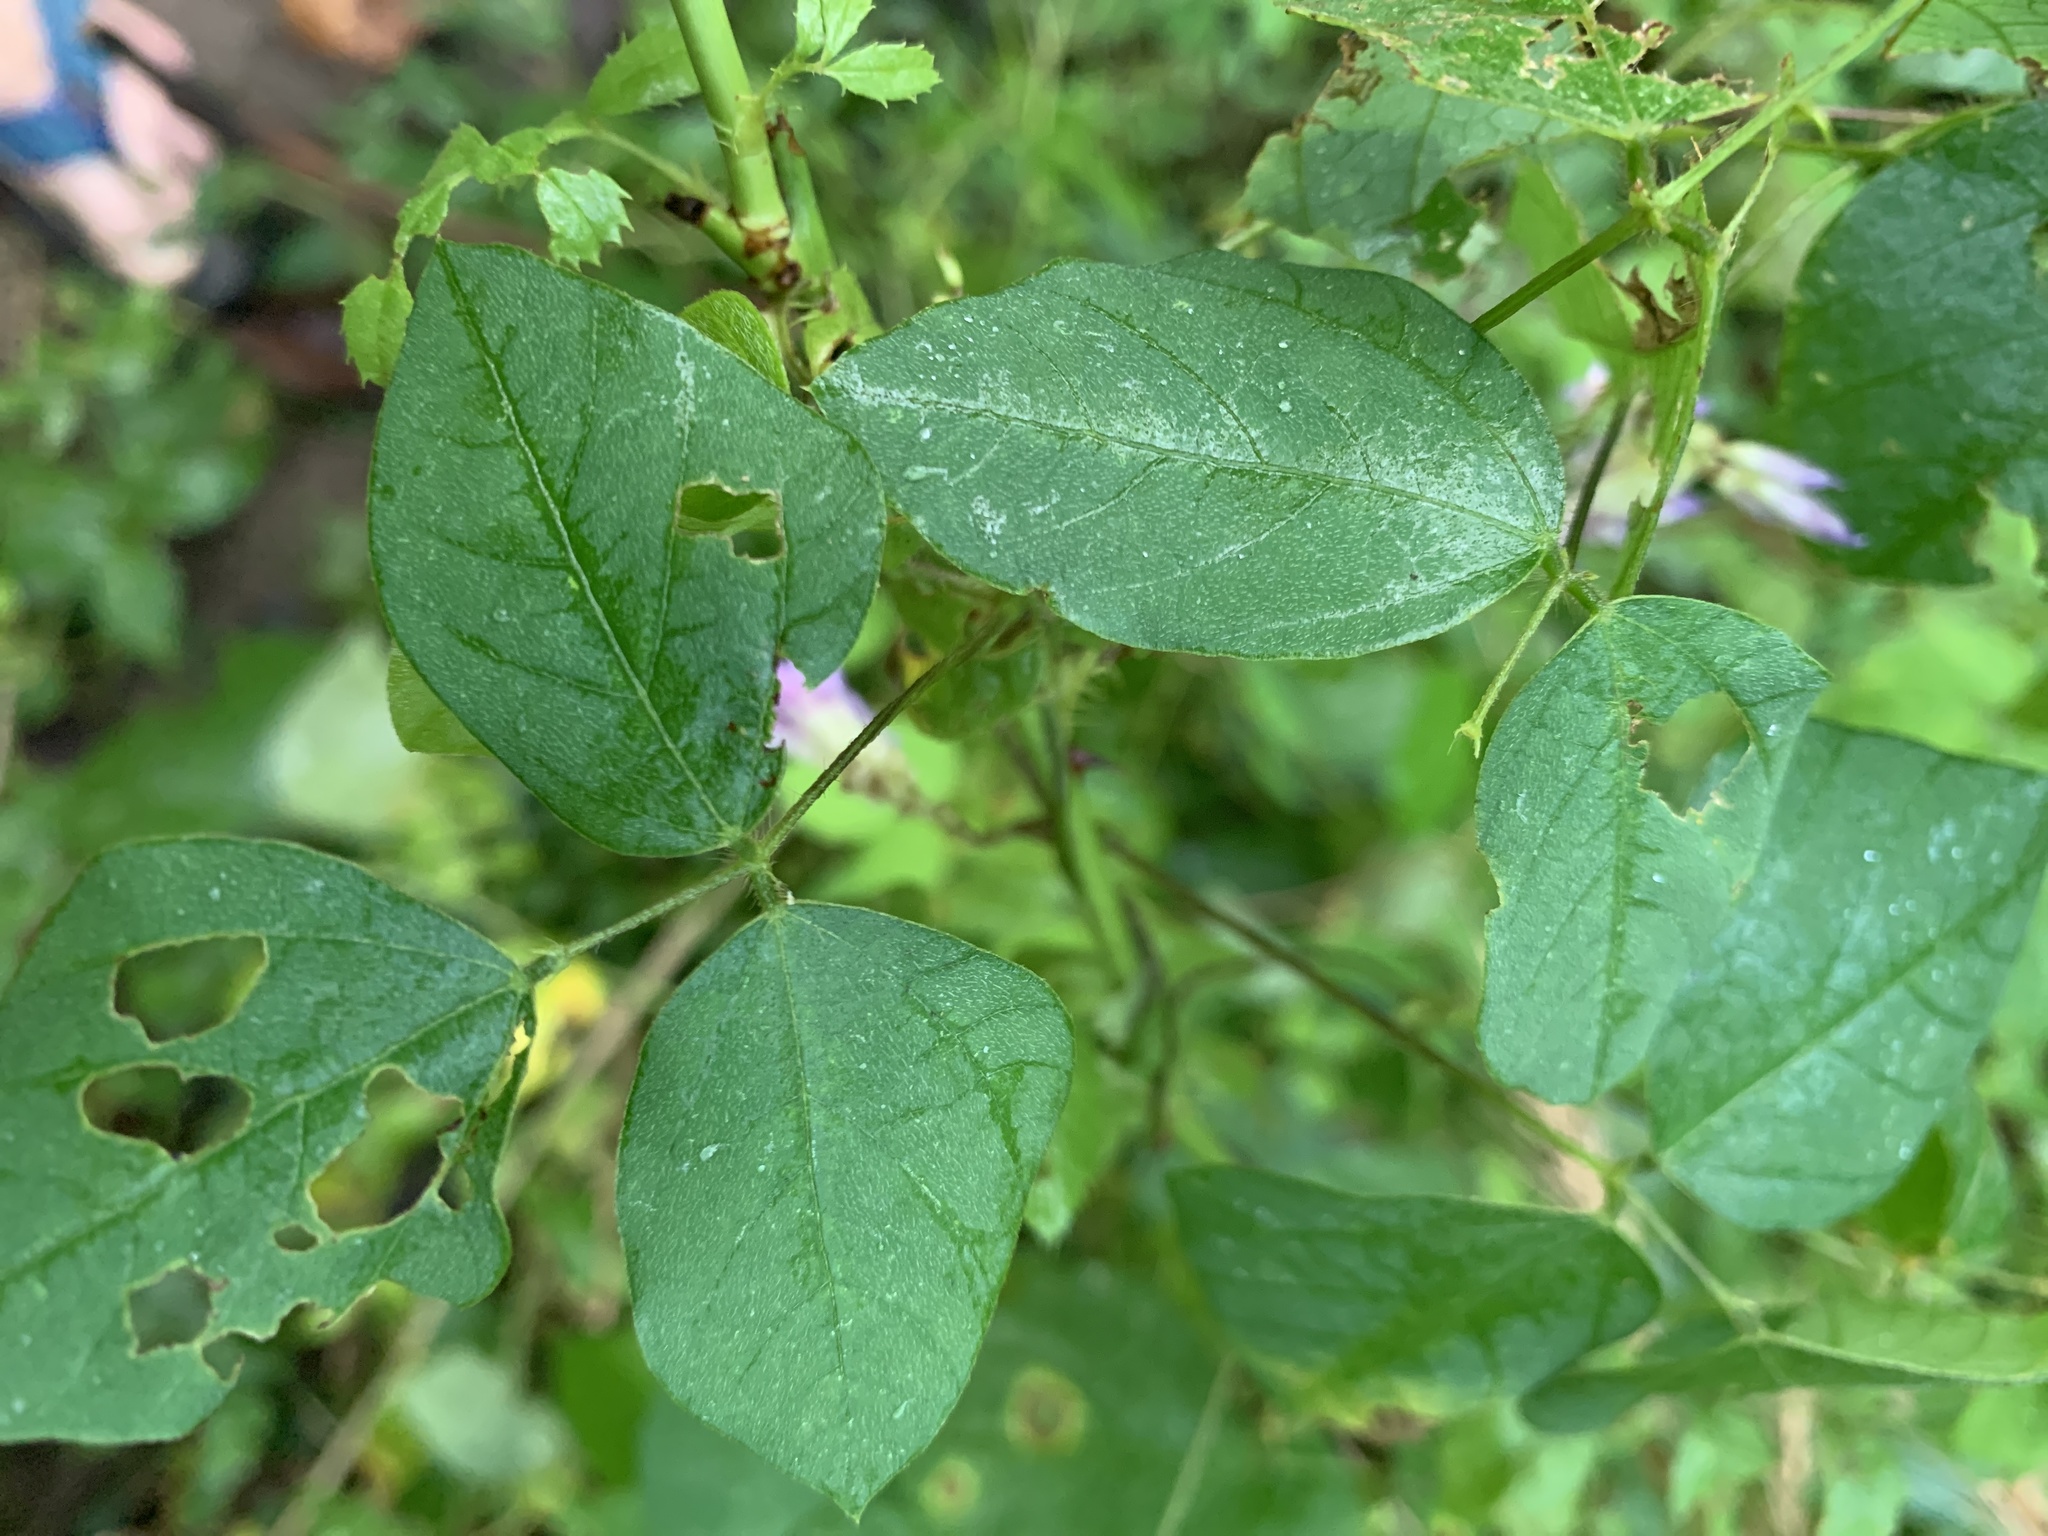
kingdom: Plantae
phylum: Tracheophyta
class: Magnoliopsida
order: Fabales
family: Fabaceae
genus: Amphicarpaea
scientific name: Amphicarpaea bracteata
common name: American hog peanut
